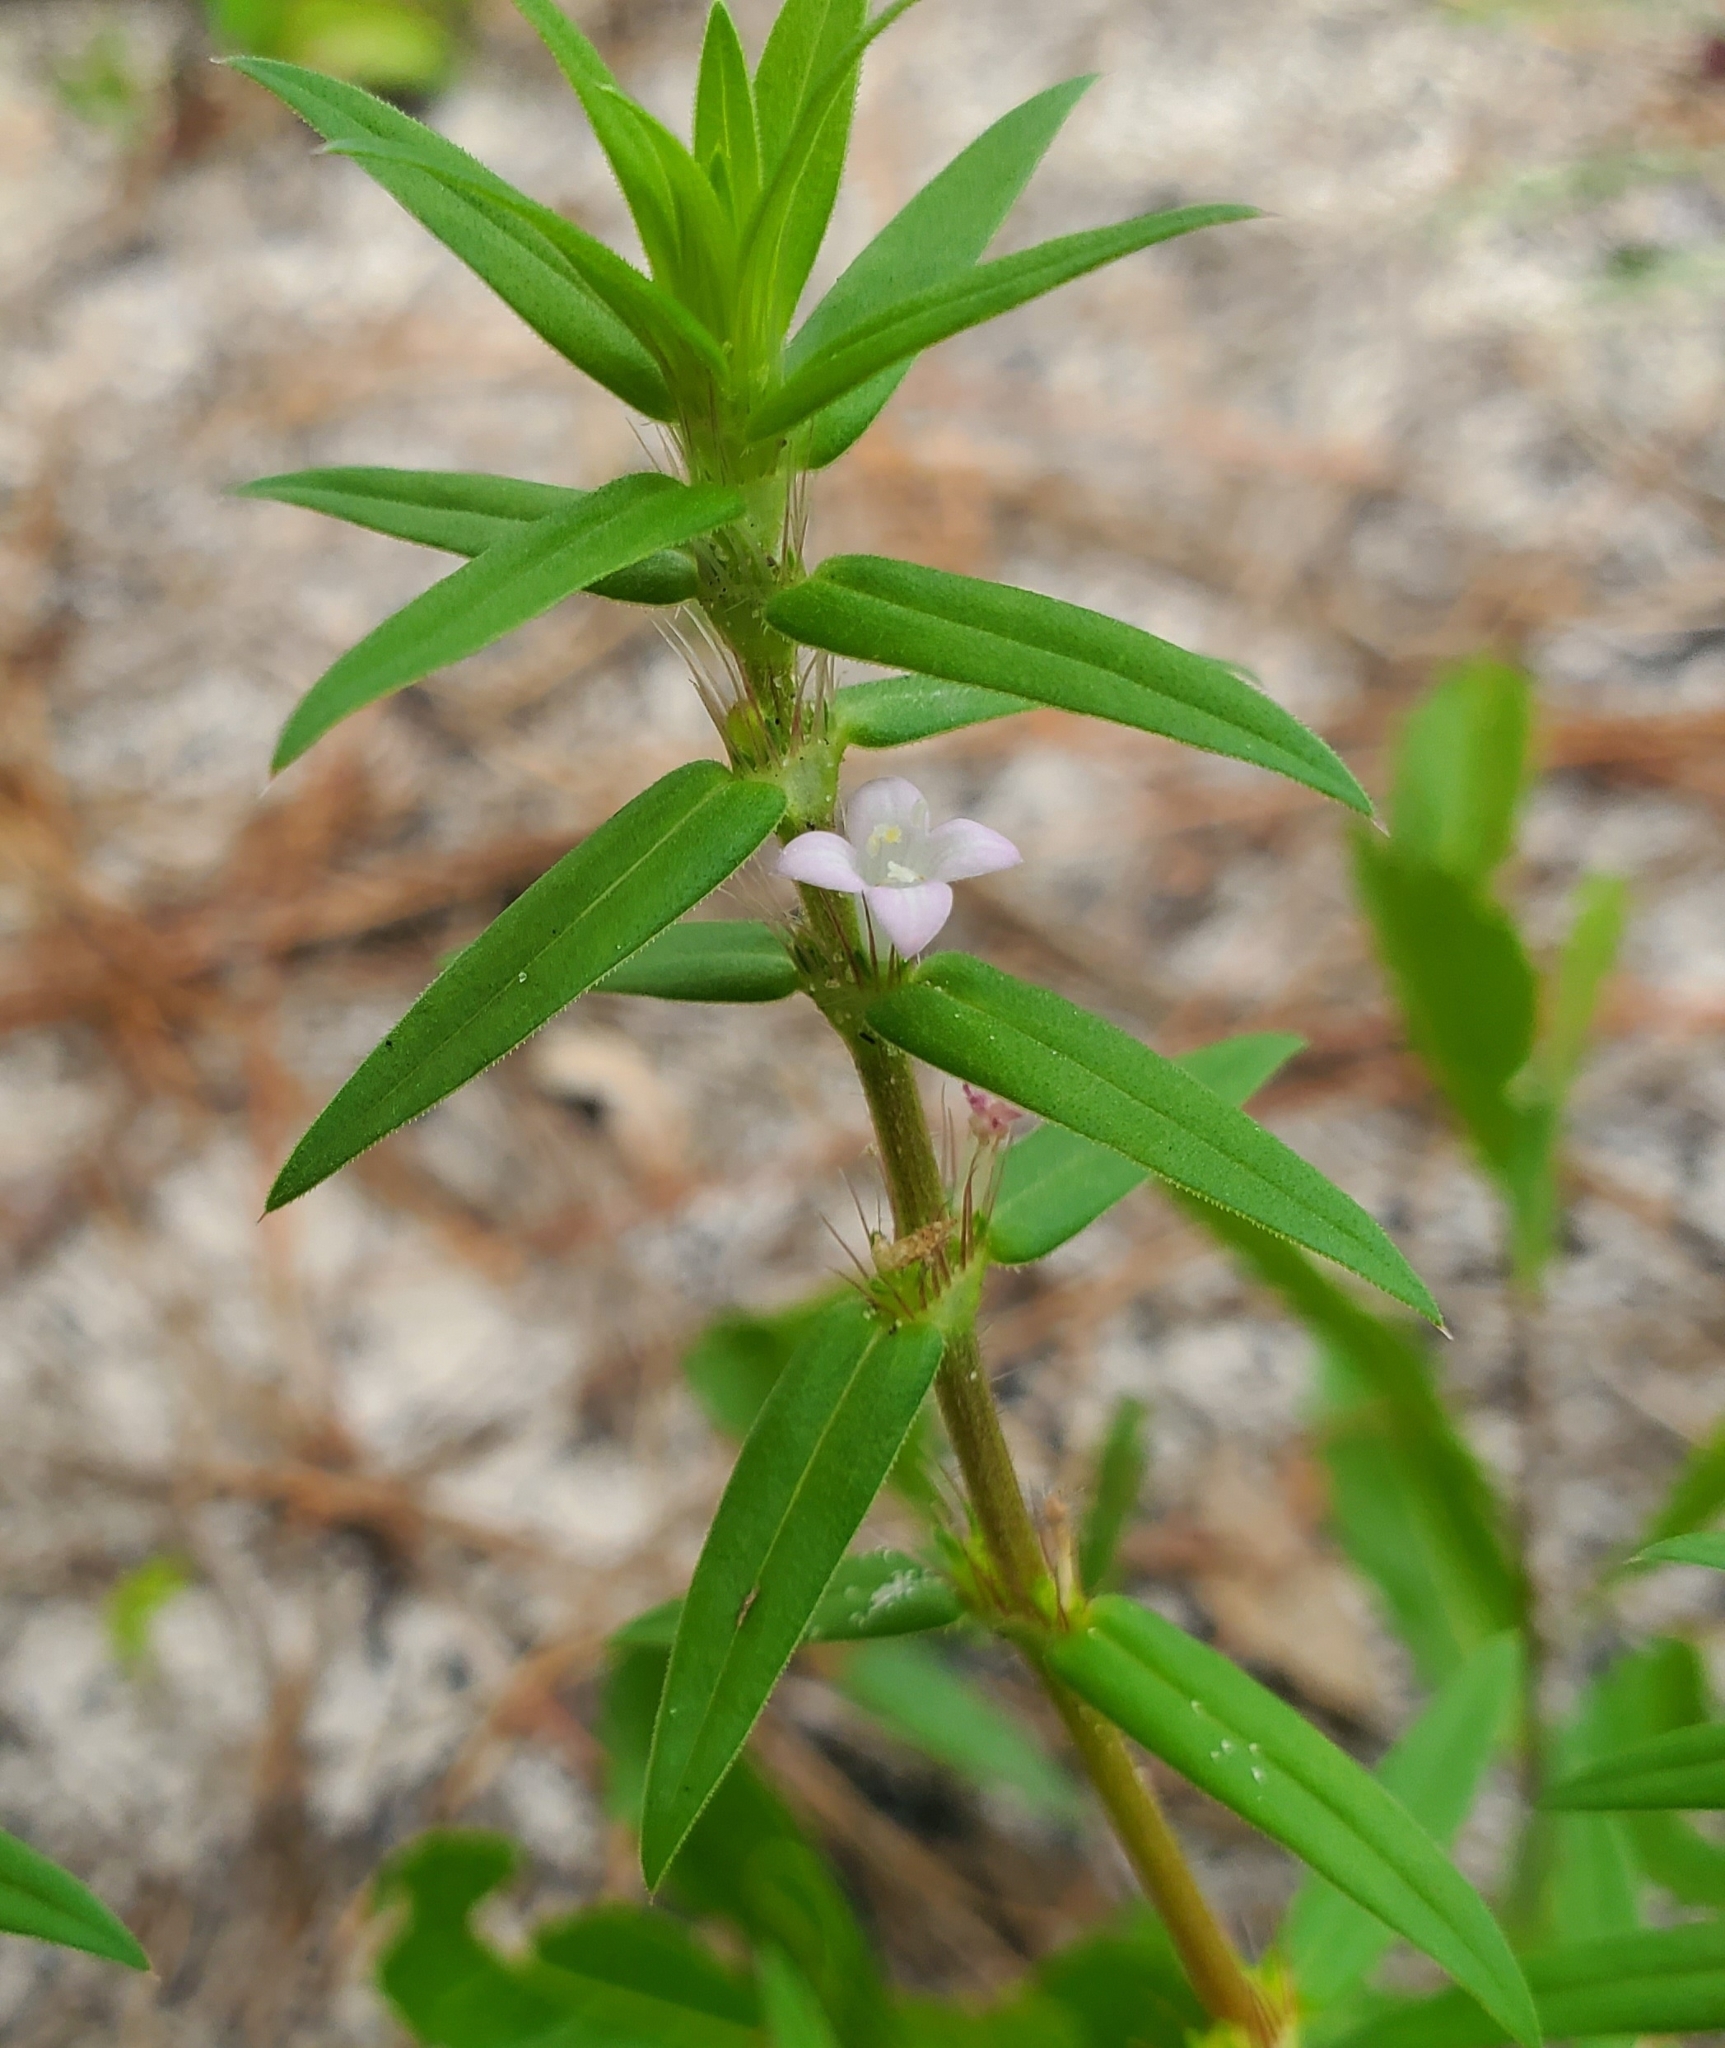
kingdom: Plantae
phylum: Tracheophyta
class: Magnoliopsida
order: Gentianales
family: Rubiaceae
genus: Hexasepalum
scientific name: Hexasepalum teres
